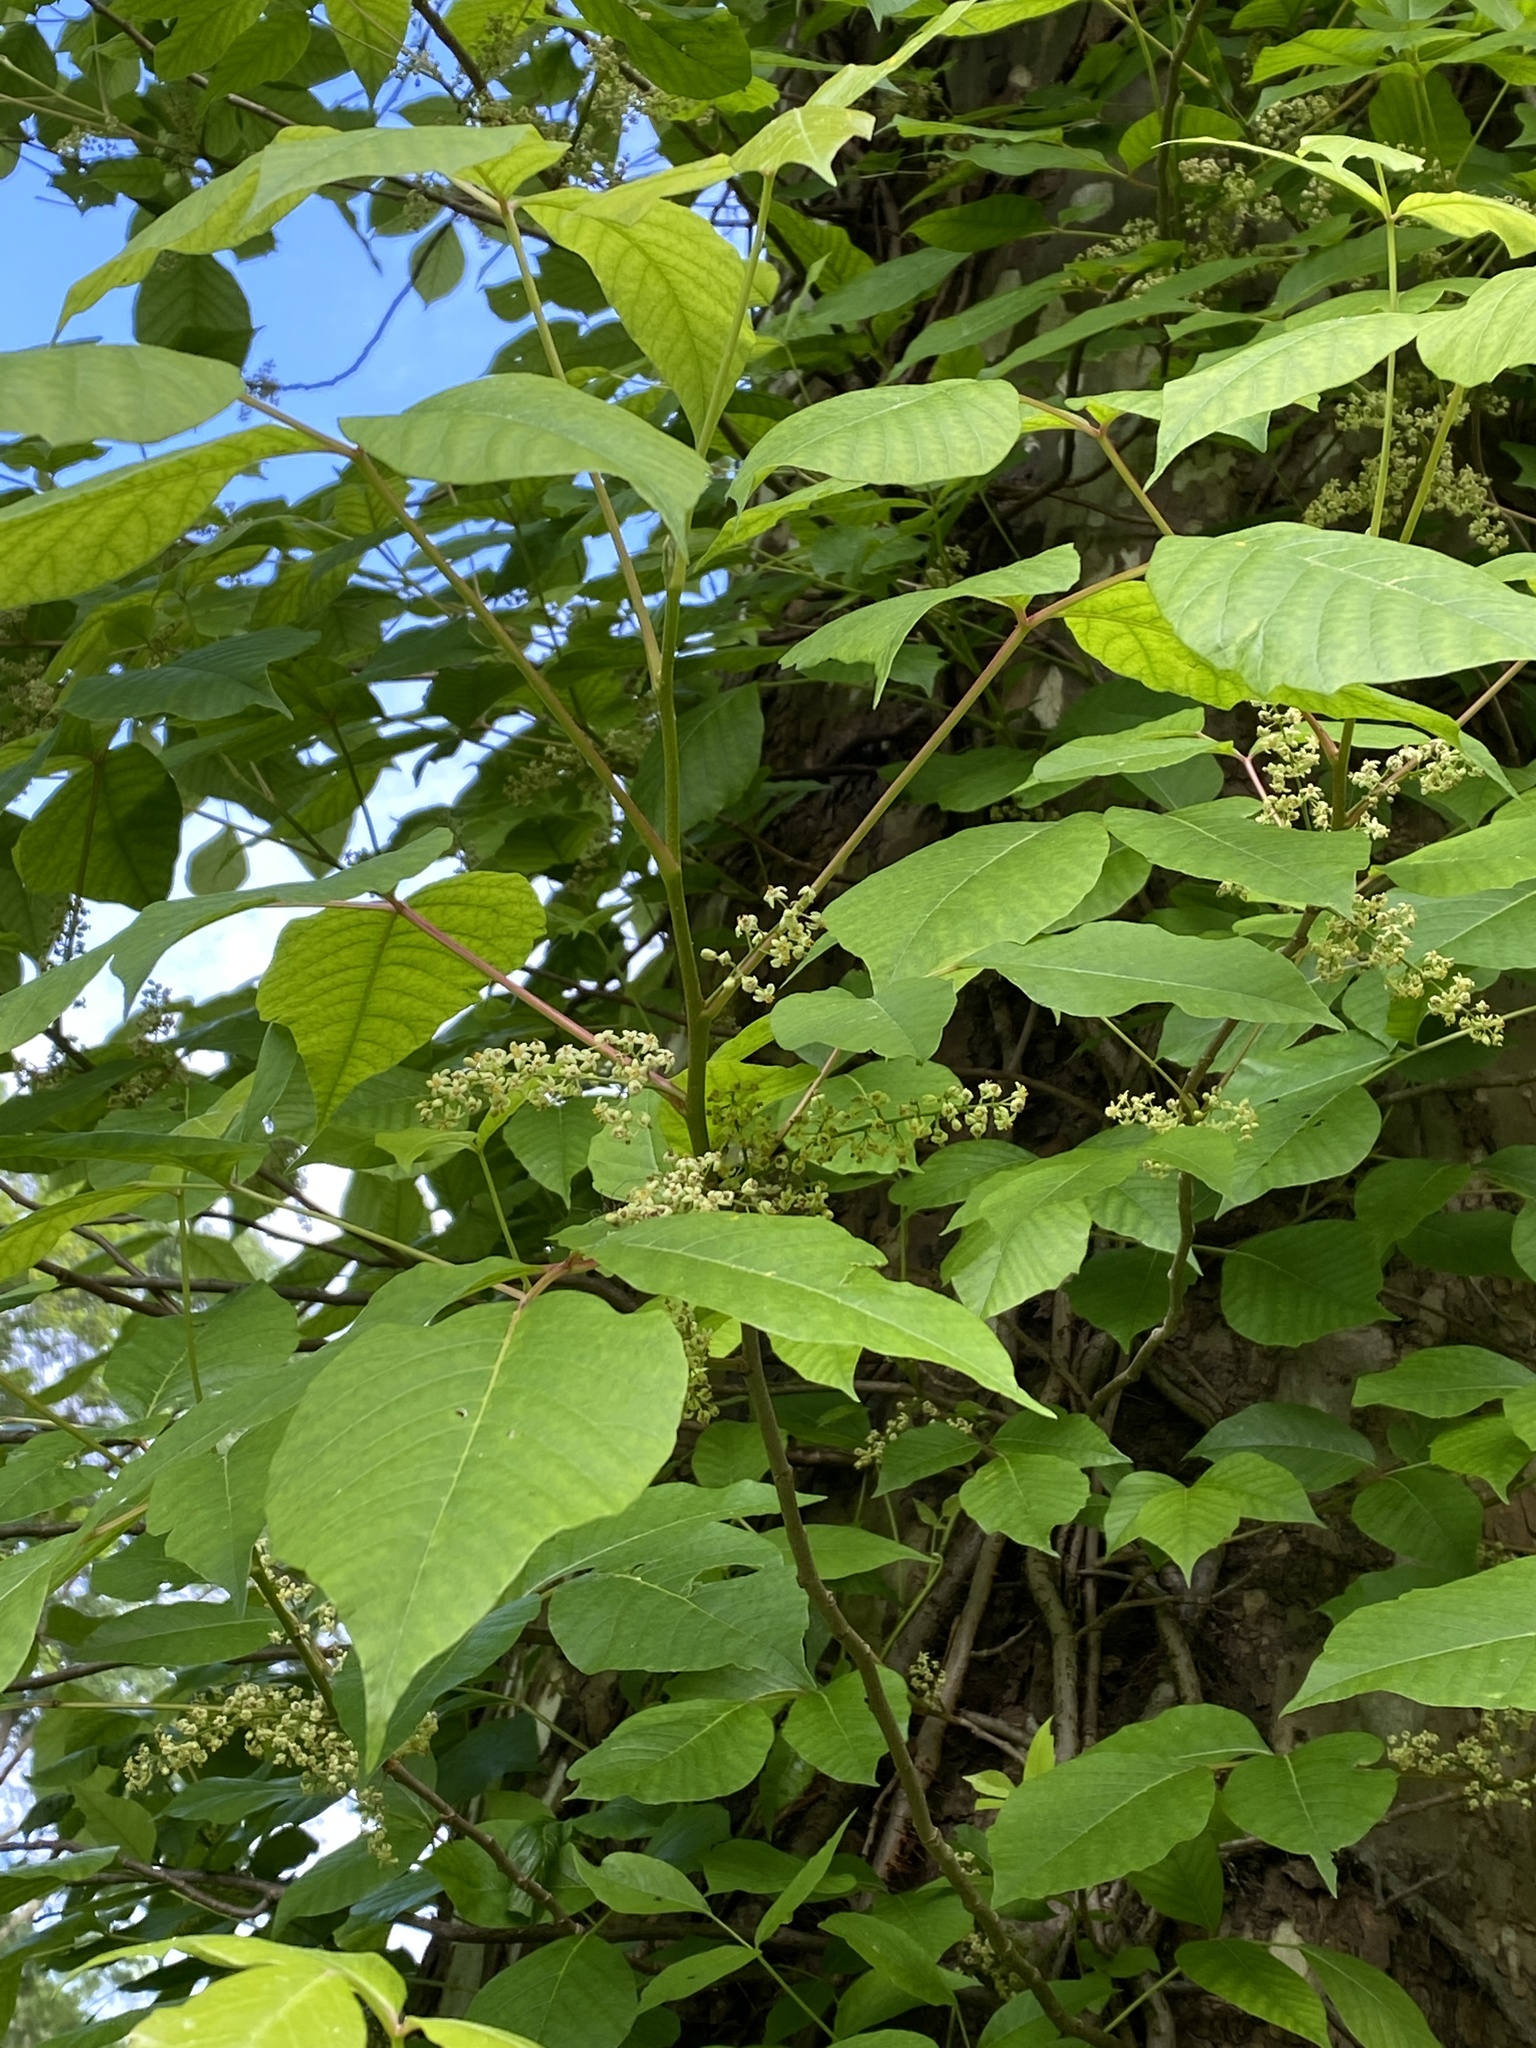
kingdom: Plantae
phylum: Tracheophyta
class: Magnoliopsida
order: Sapindales
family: Anacardiaceae
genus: Toxicodendron
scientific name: Toxicodendron radicans
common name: Poison ivy
